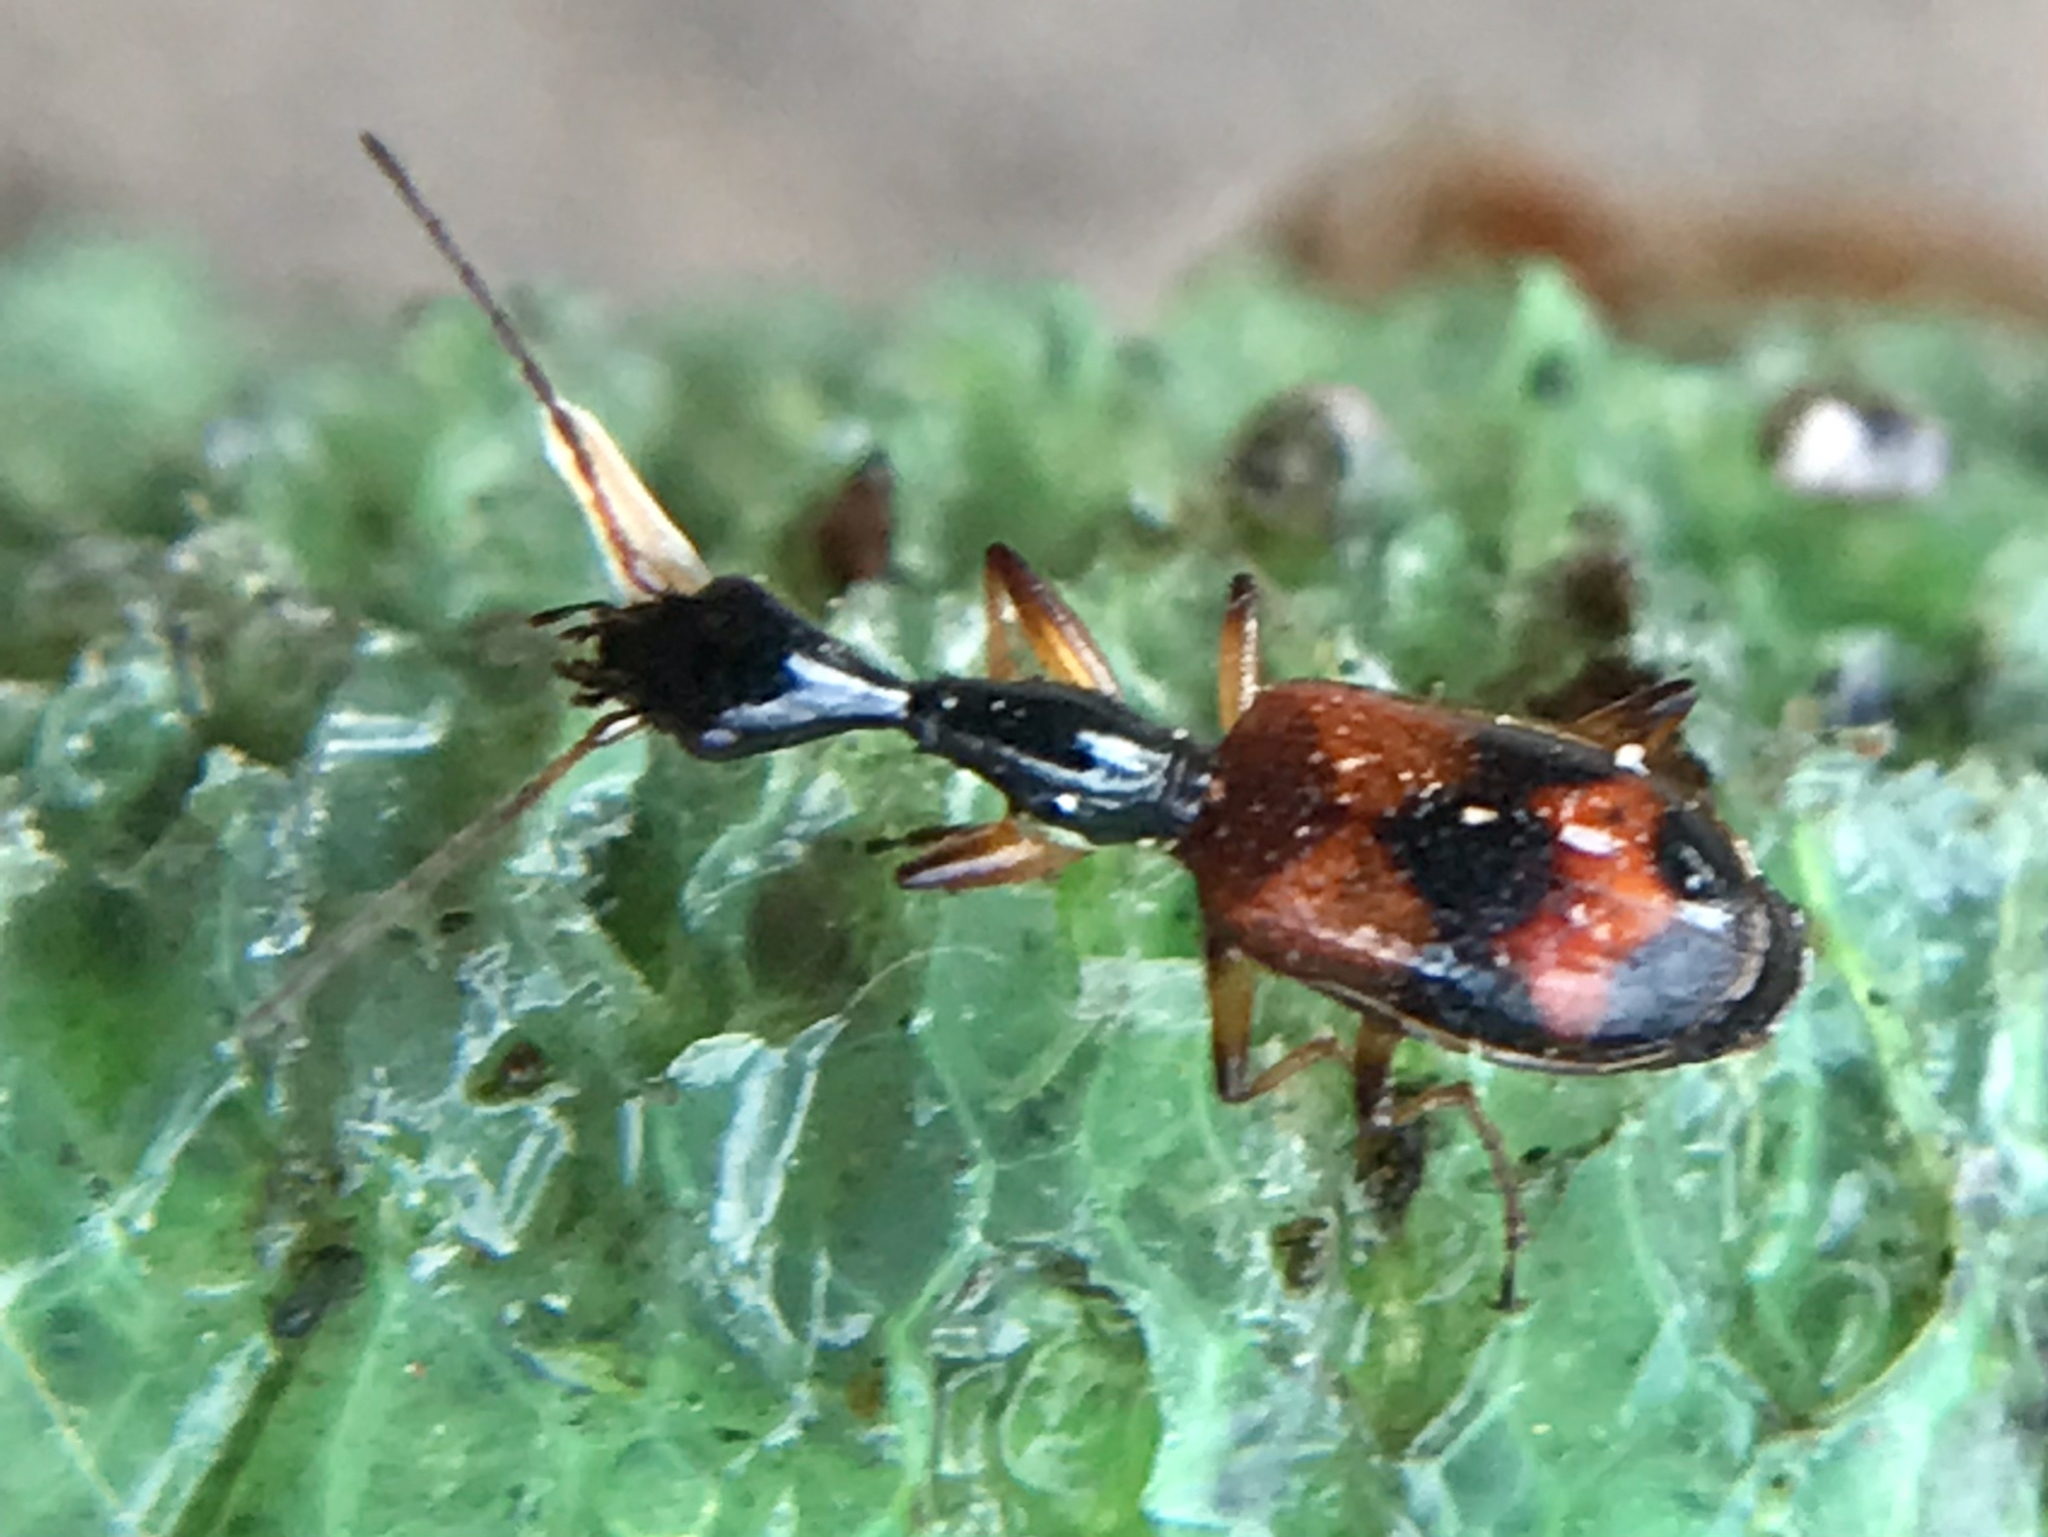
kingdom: Animalia
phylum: Arthropoda
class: Insecta
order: Coleoptera
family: Carabidae
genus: Colliuris
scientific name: Colliuris pensylvanica
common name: Long-necked ground beetle
